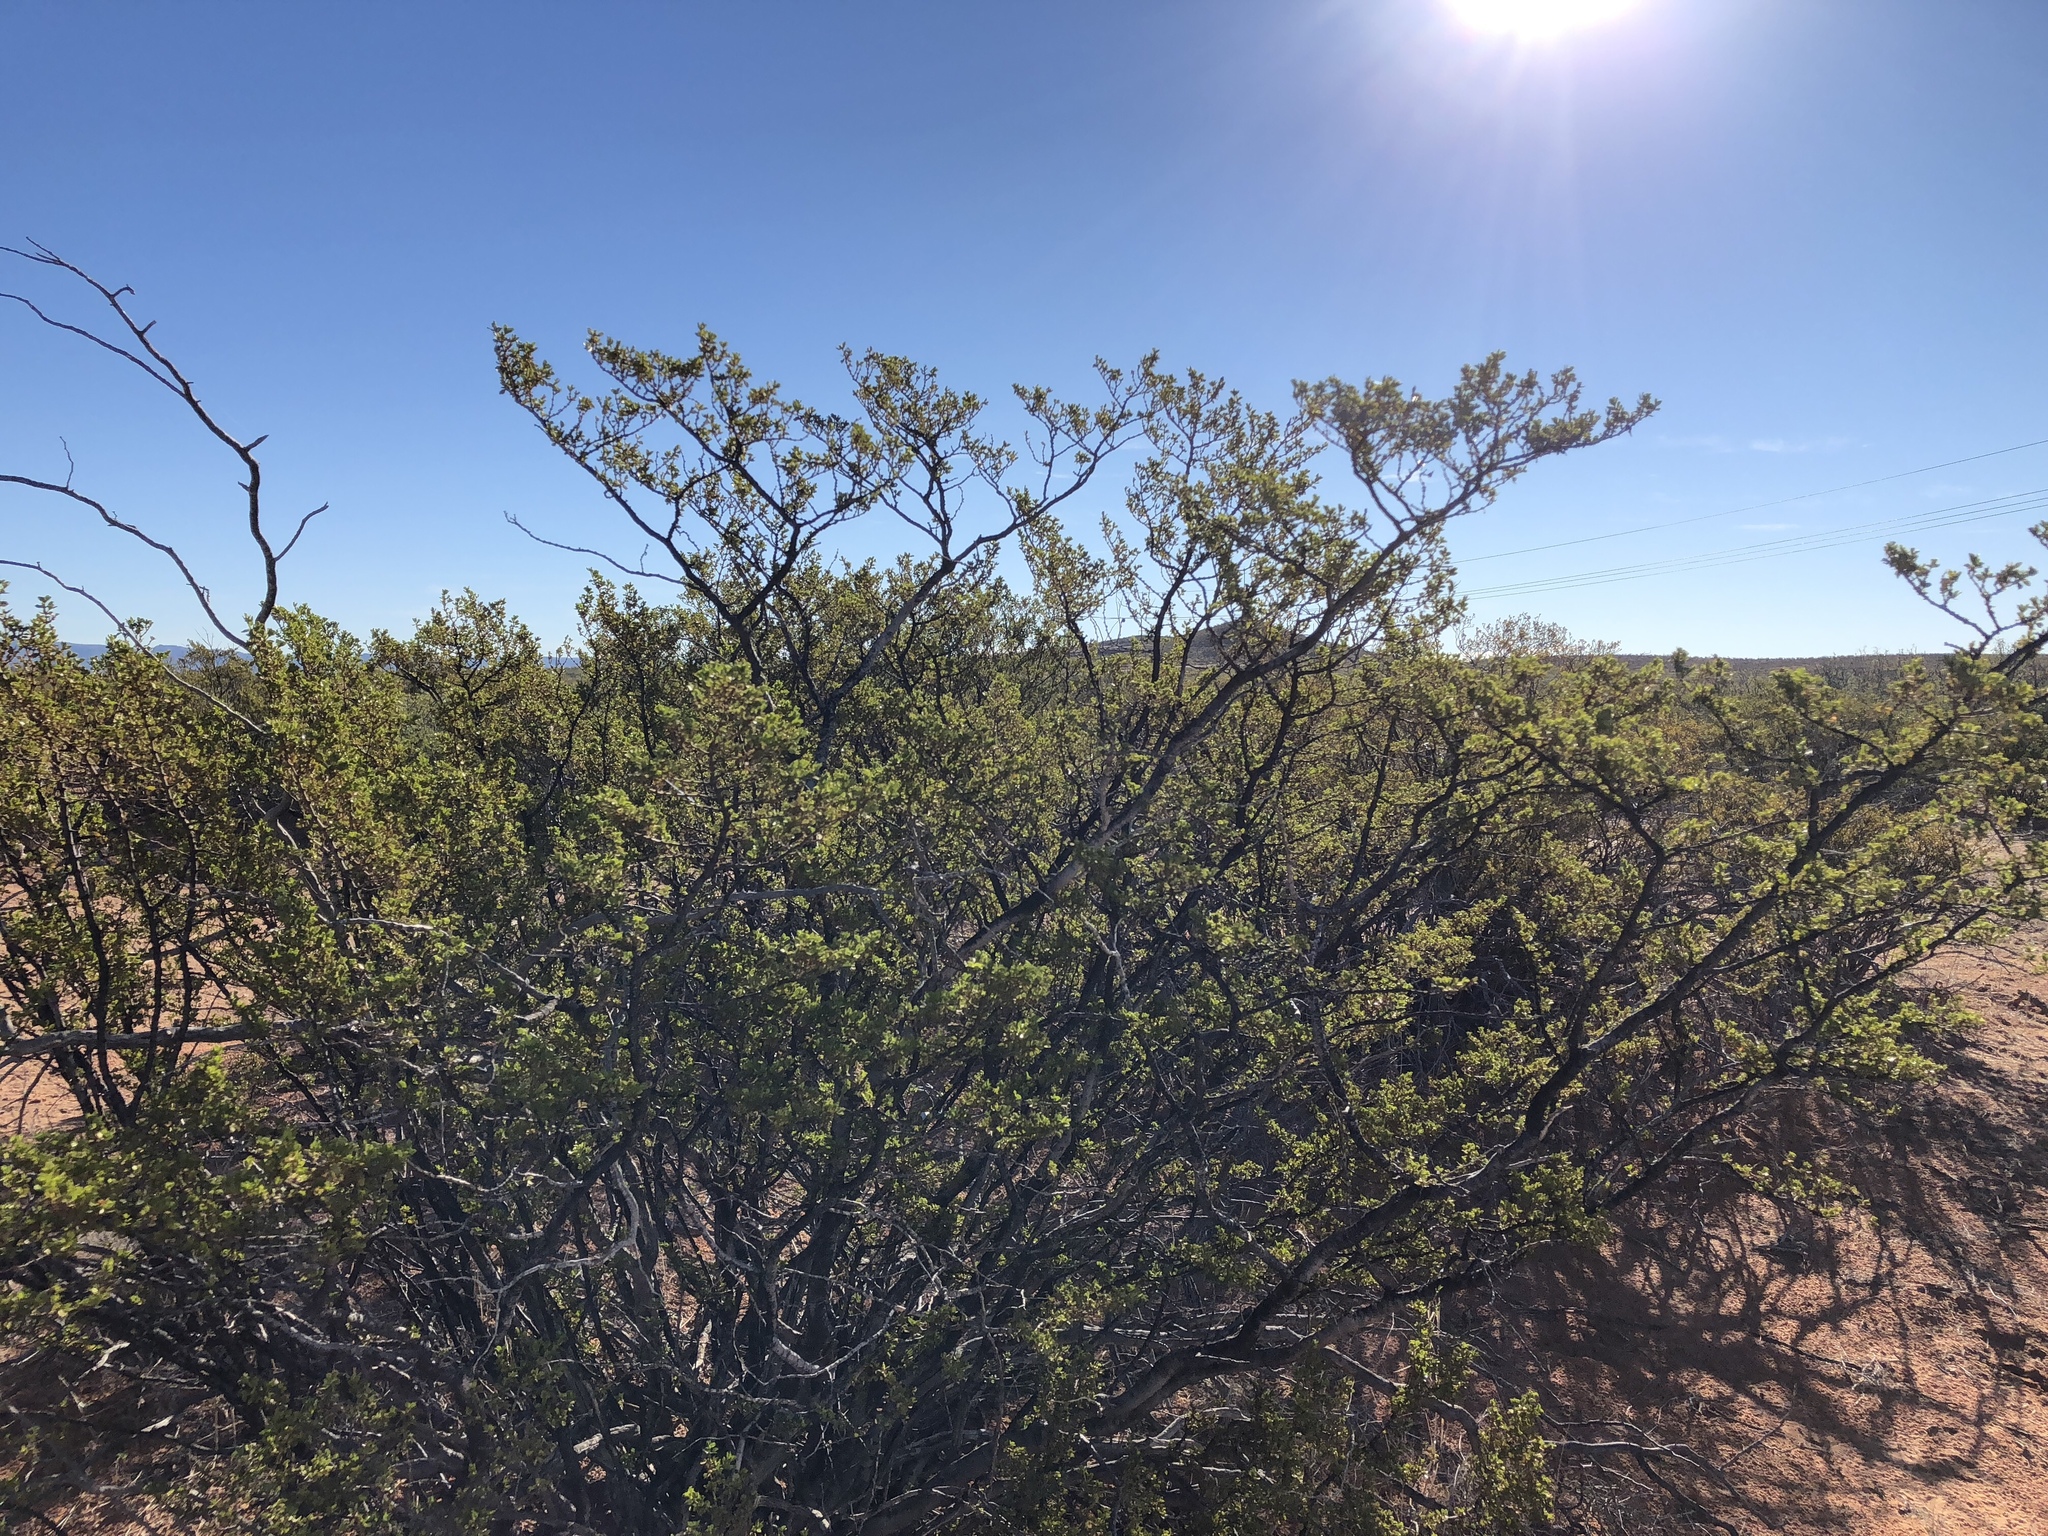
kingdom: Plantae
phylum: Tracheophyta
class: Magnoliopsida
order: Zygophyllales
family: Zygophyllaceae
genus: Larrea
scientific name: Larrea tridentata
